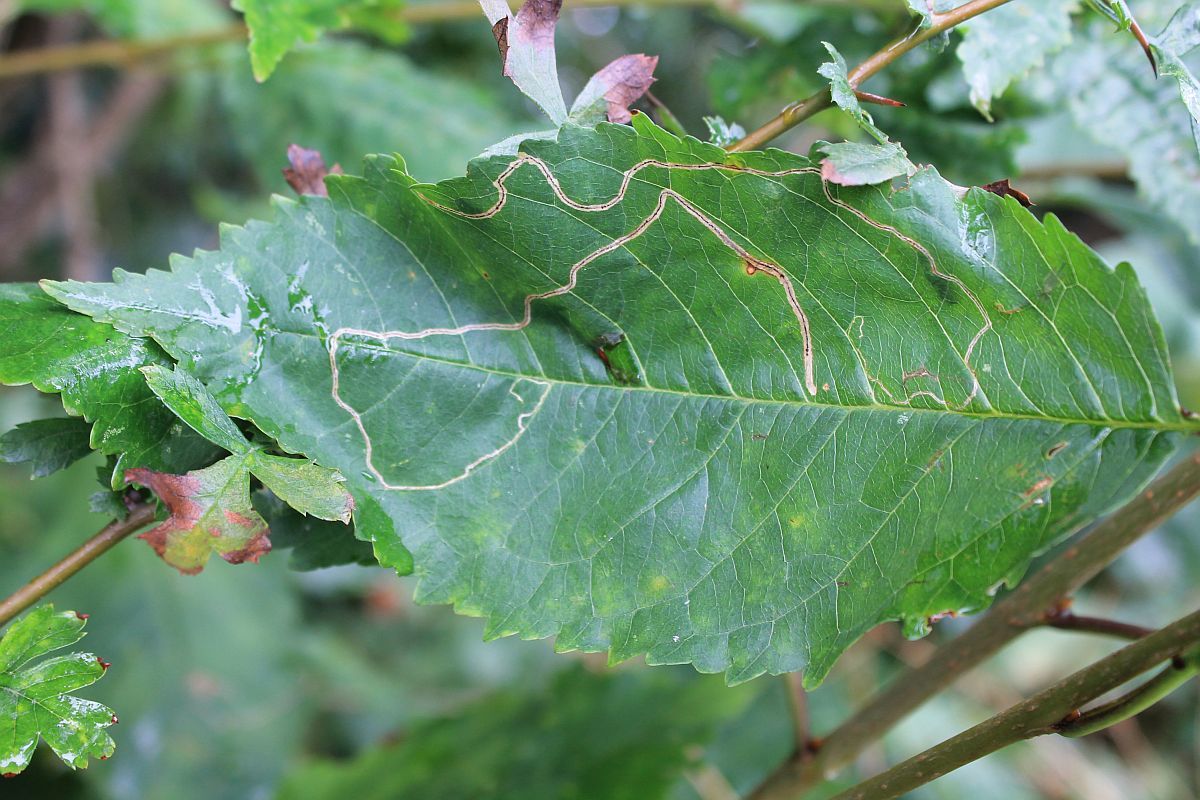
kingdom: Animalia
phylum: Arthropoda
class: Insecta
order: Lepidoptera
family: Lyonetiidae
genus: Lyonetia
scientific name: Lyonetia clerkella
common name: Apple leaf miner
